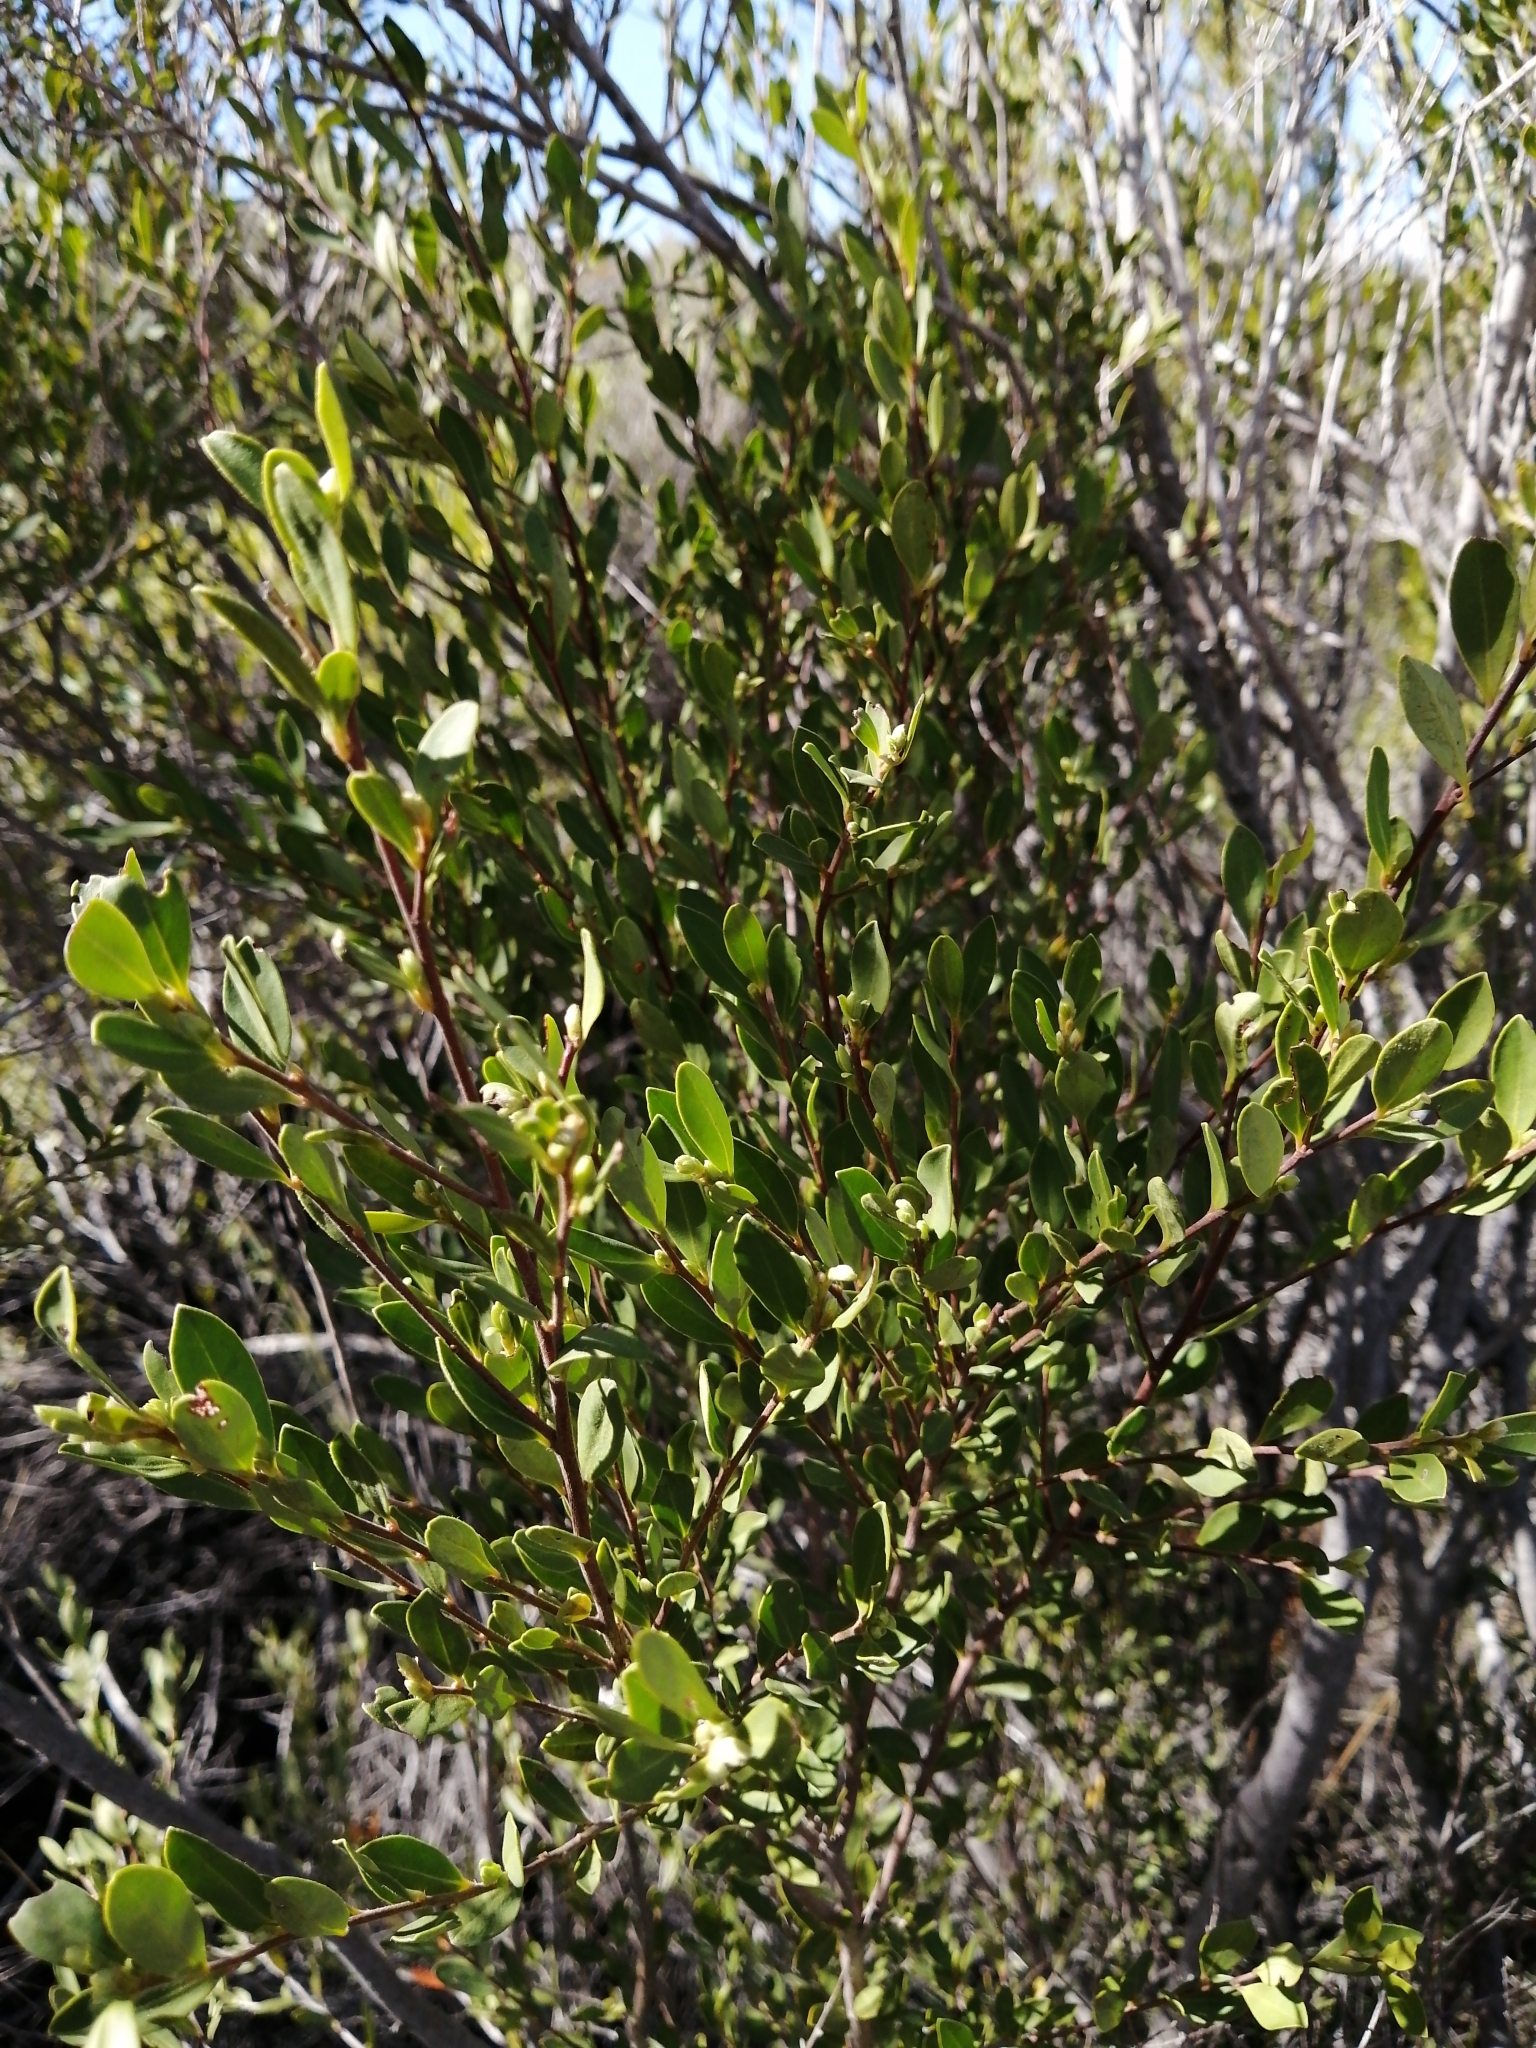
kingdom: Plantae
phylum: Tracheophyta
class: Magnoliopsida
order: Ericales
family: Ebenaceae
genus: Diospyros
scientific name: Diospyros glabra
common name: Fynbos star apple
